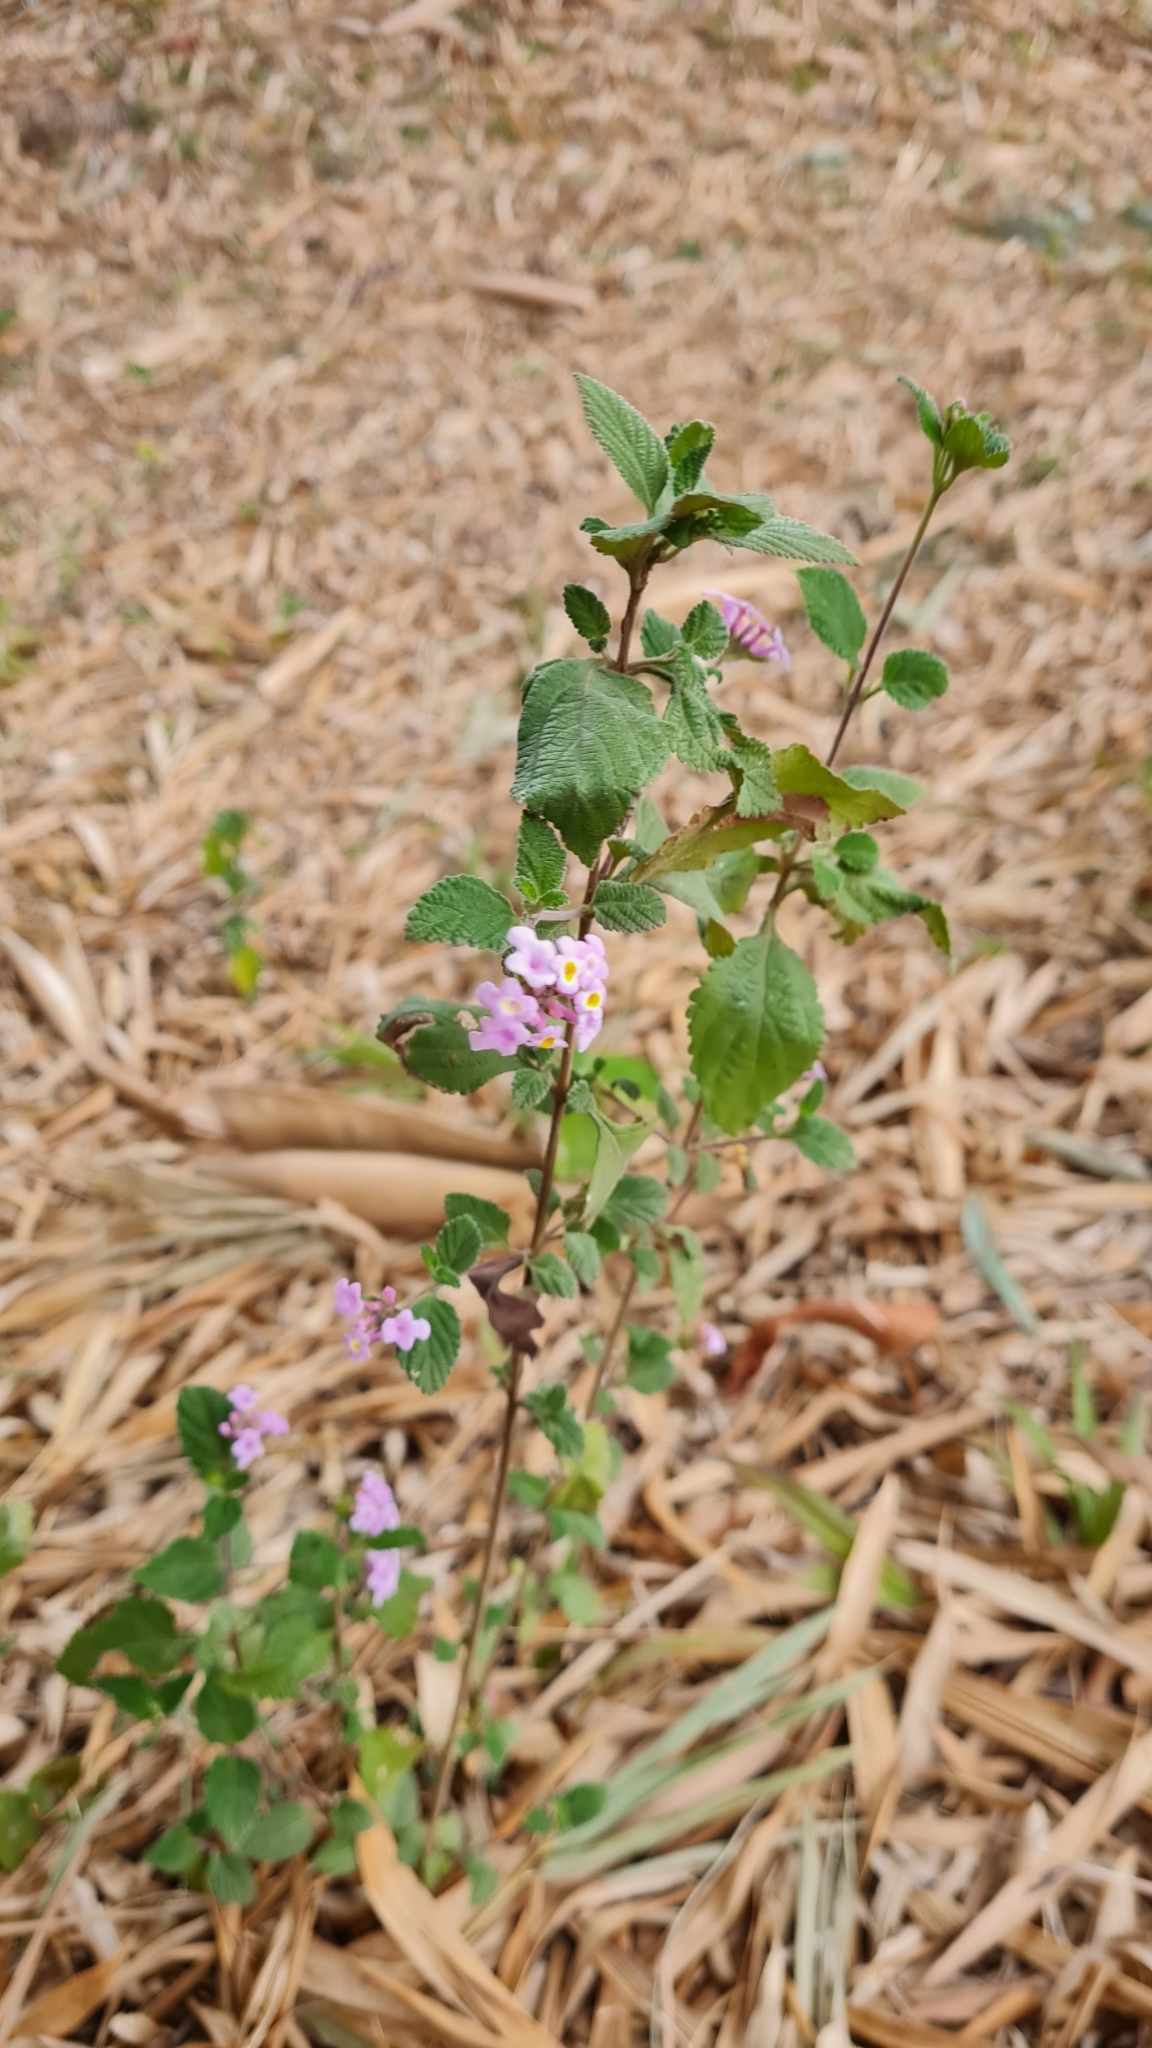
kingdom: Plantae
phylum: Tracheophyta
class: Magnoliopsida
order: Lamiales
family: Verbenaceae
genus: Lantana
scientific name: Lantana fucata
